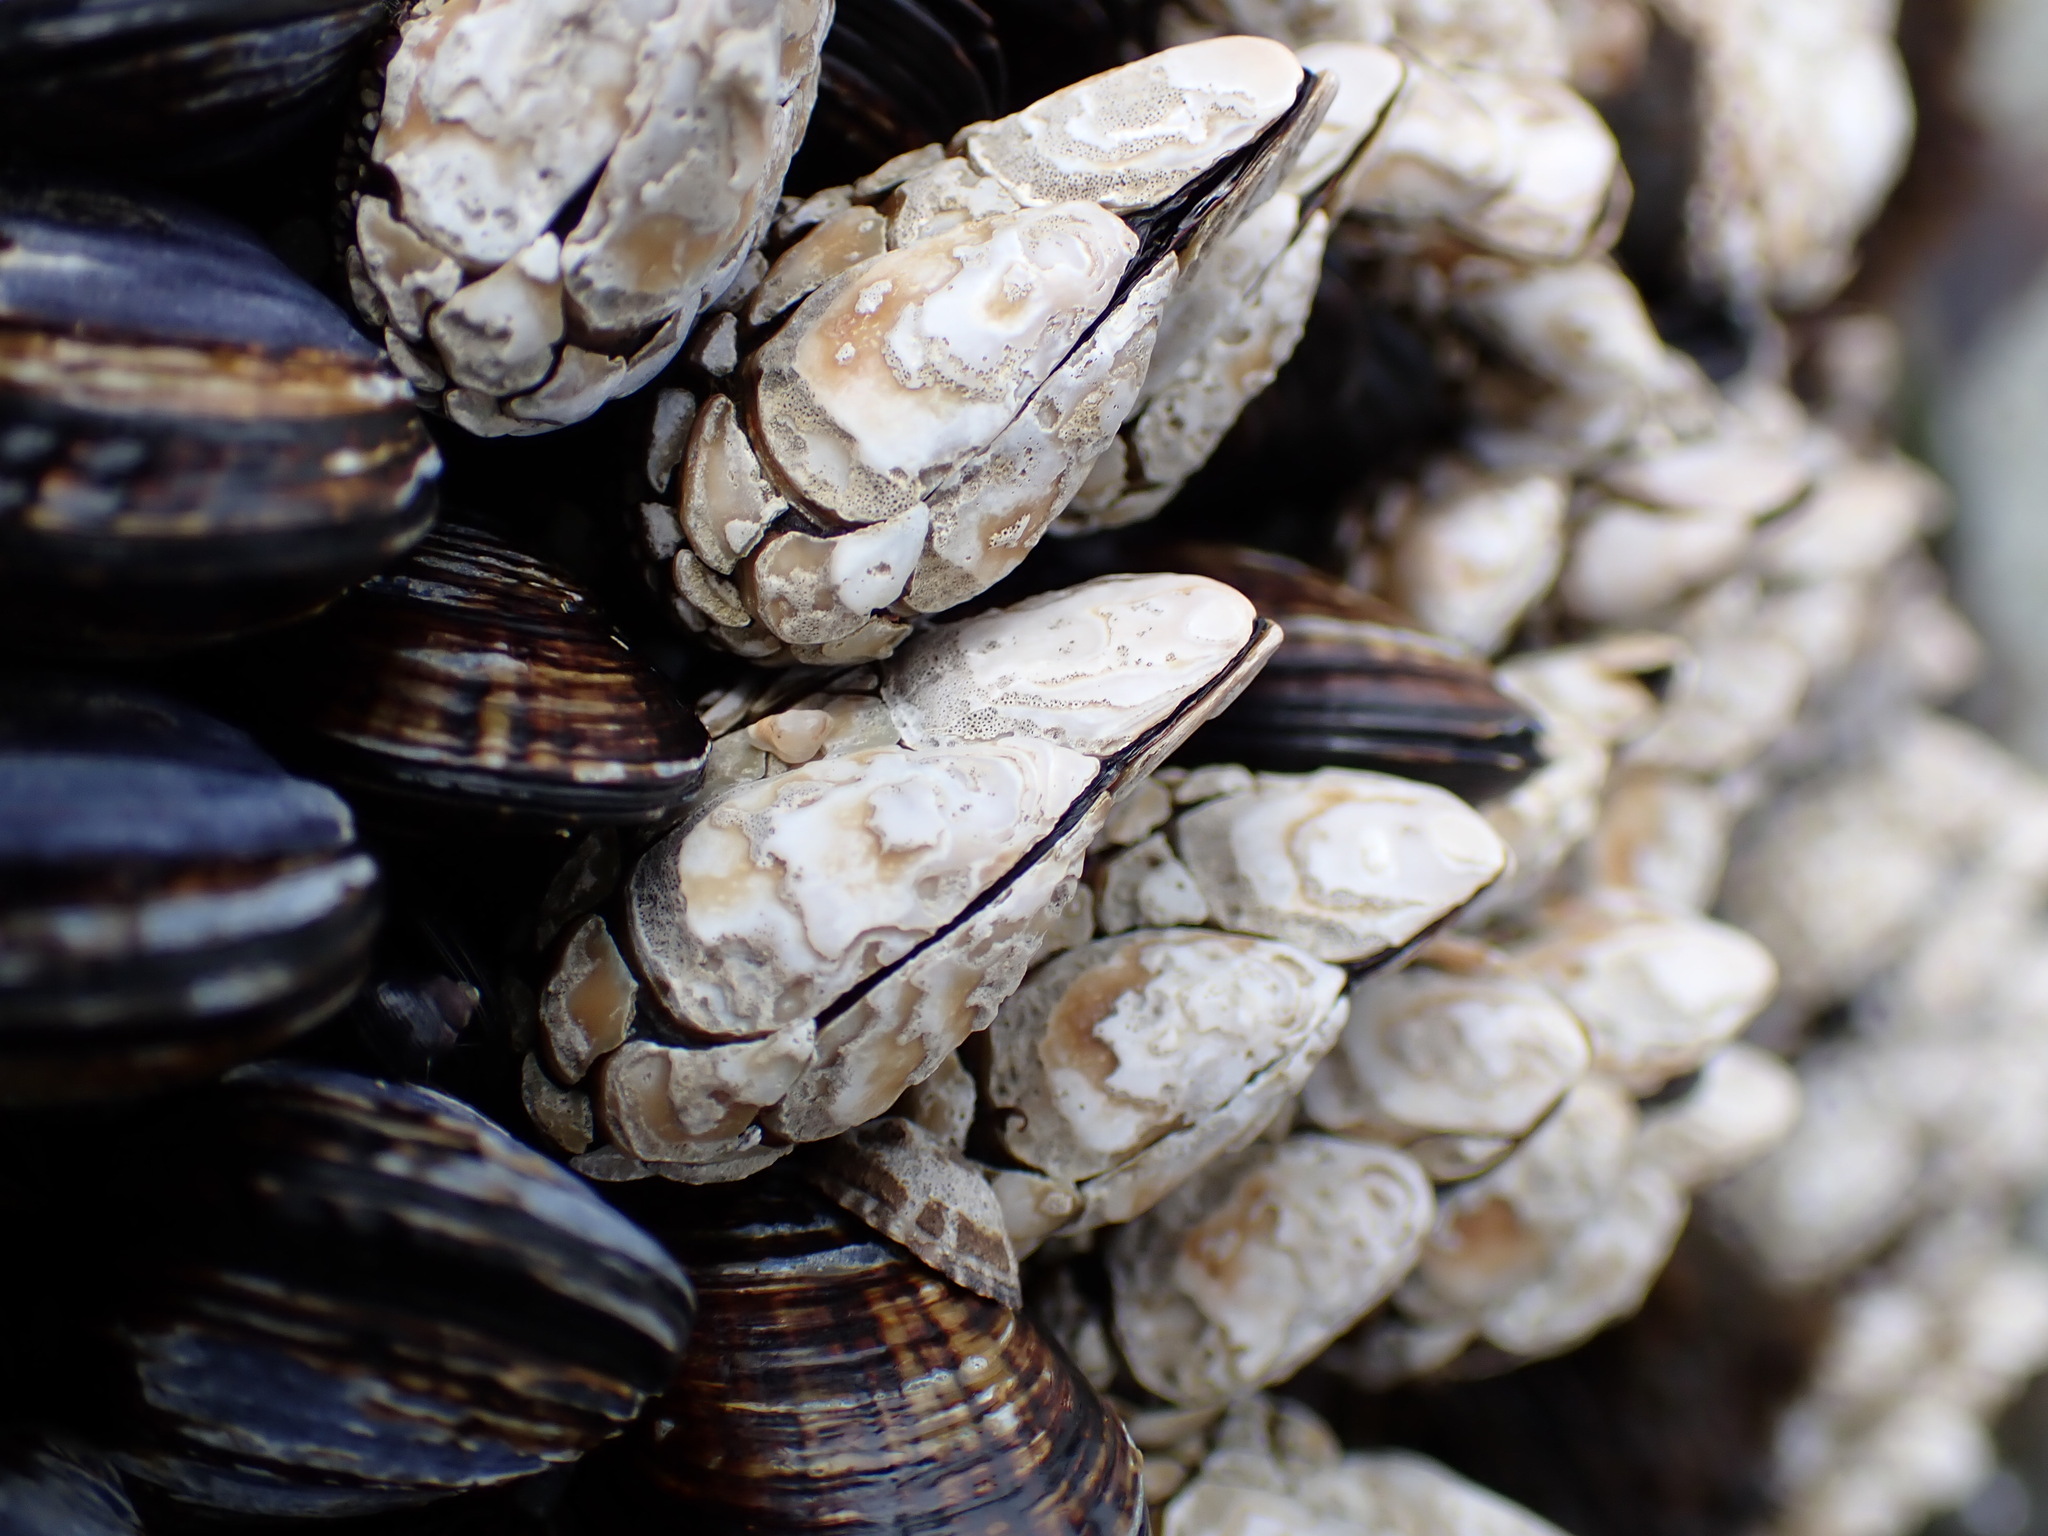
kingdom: Animalia
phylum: Arthropoda
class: Maxillopoda
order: Pedunculata
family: Pollicipedidae
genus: Pollicipes
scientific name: Pollicipes polymerus
